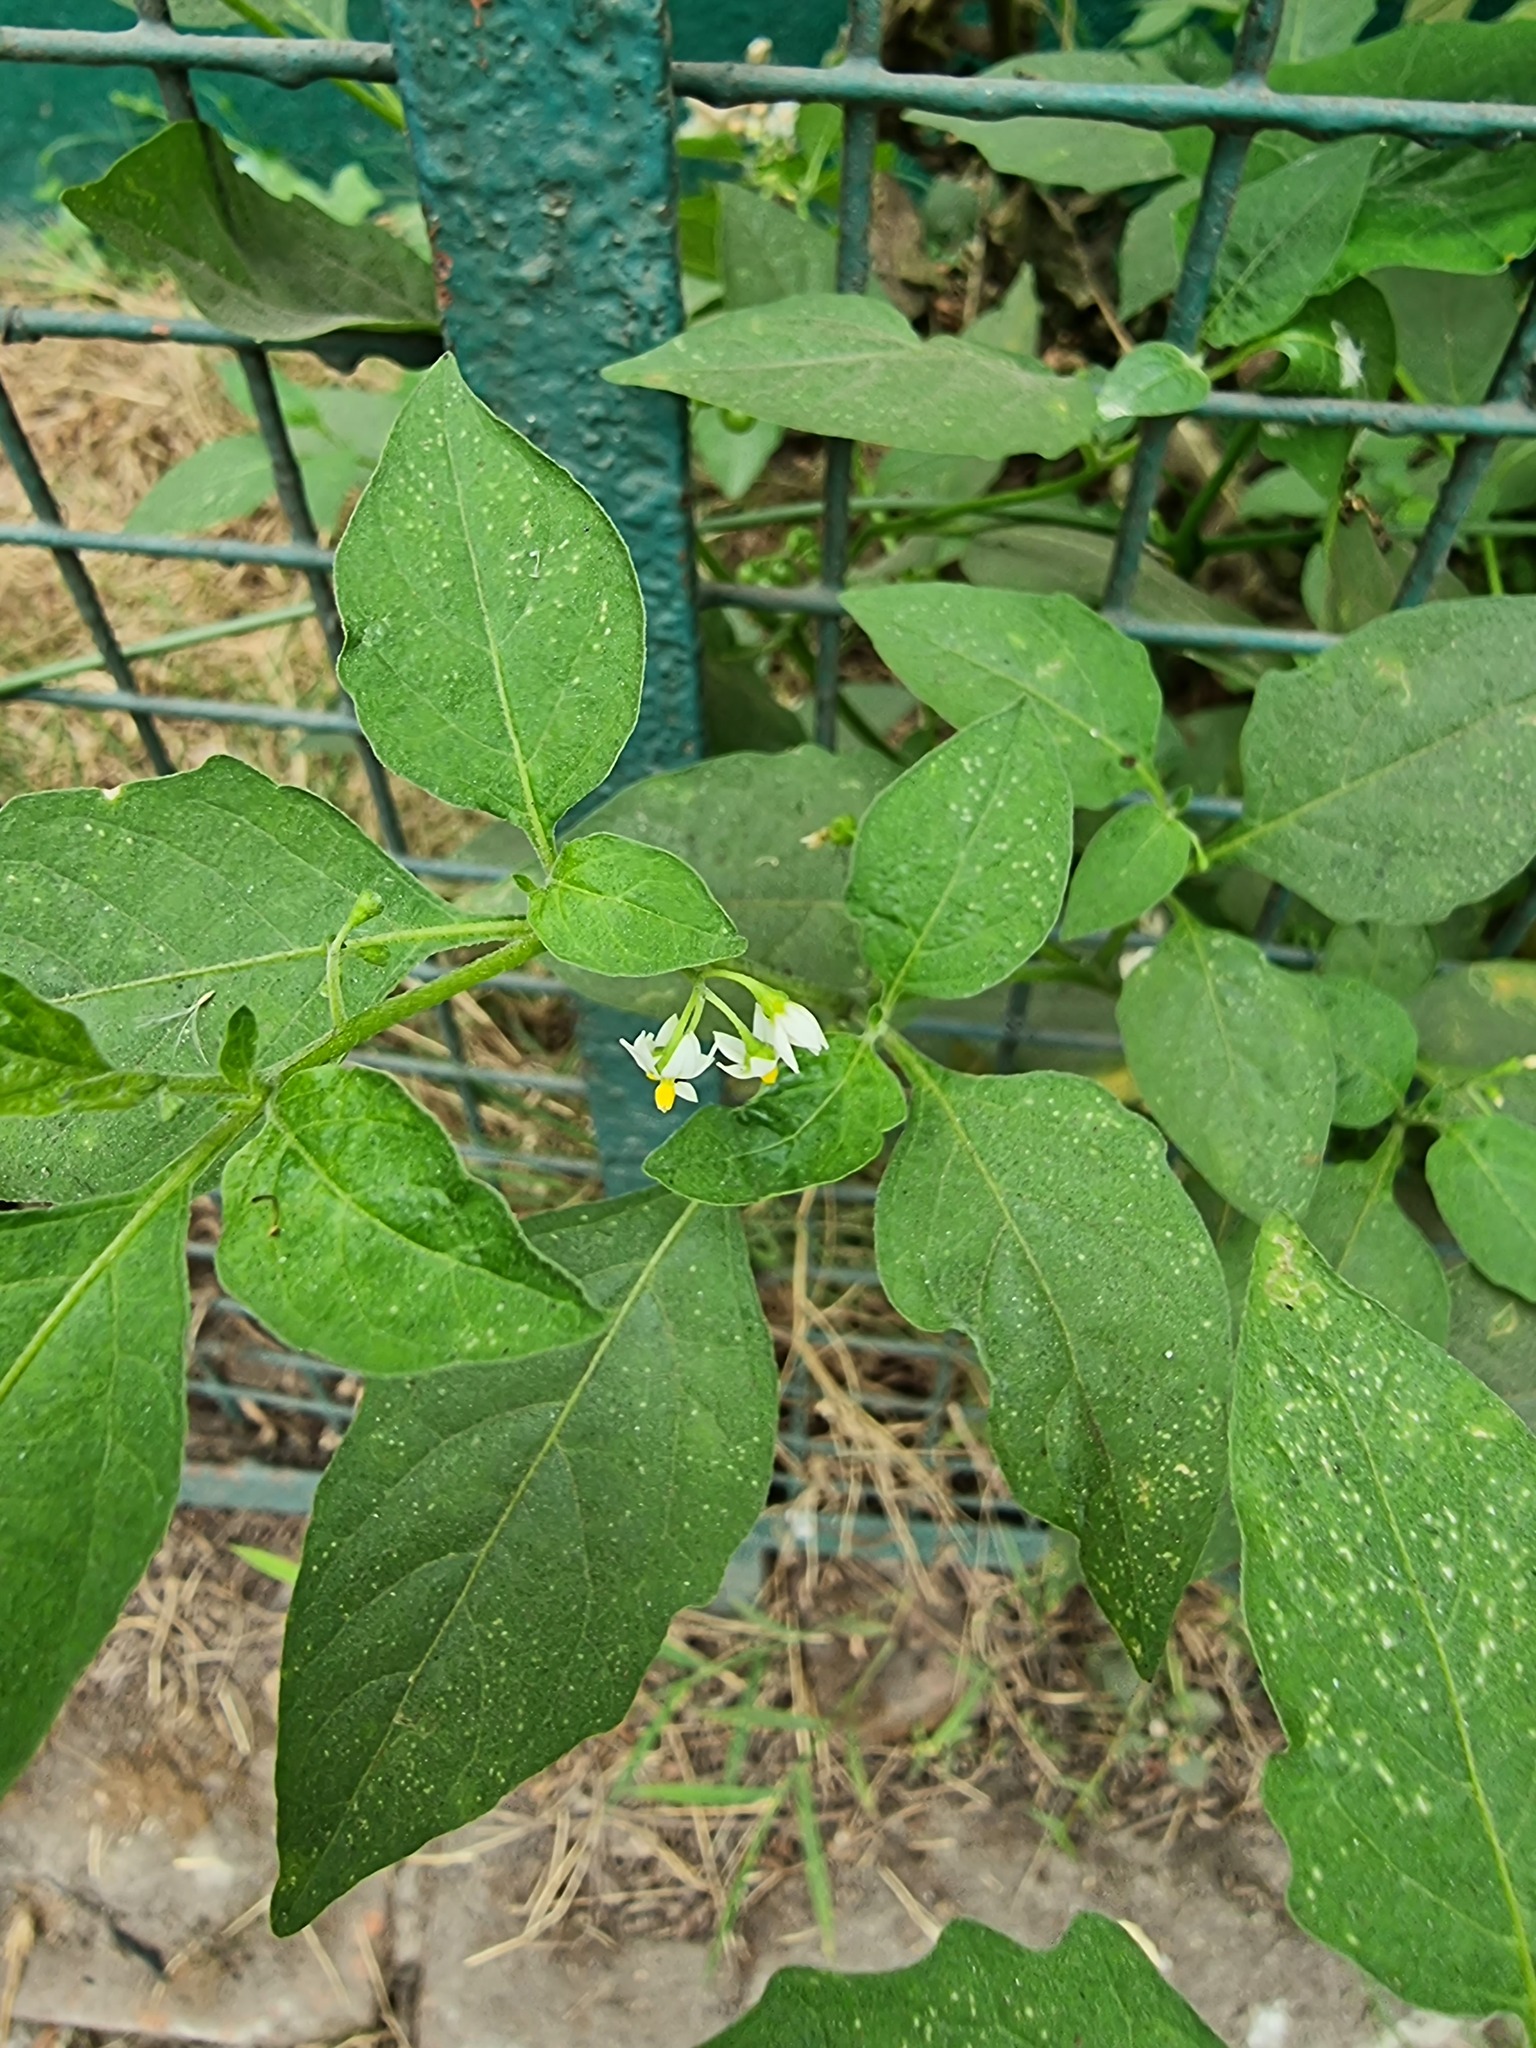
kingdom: Plantae
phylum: Tracheophyta
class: Magnoliopsida
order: Solanales
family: Solanaceae
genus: Solanum
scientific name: Solanum americanum
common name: American black nightshade
